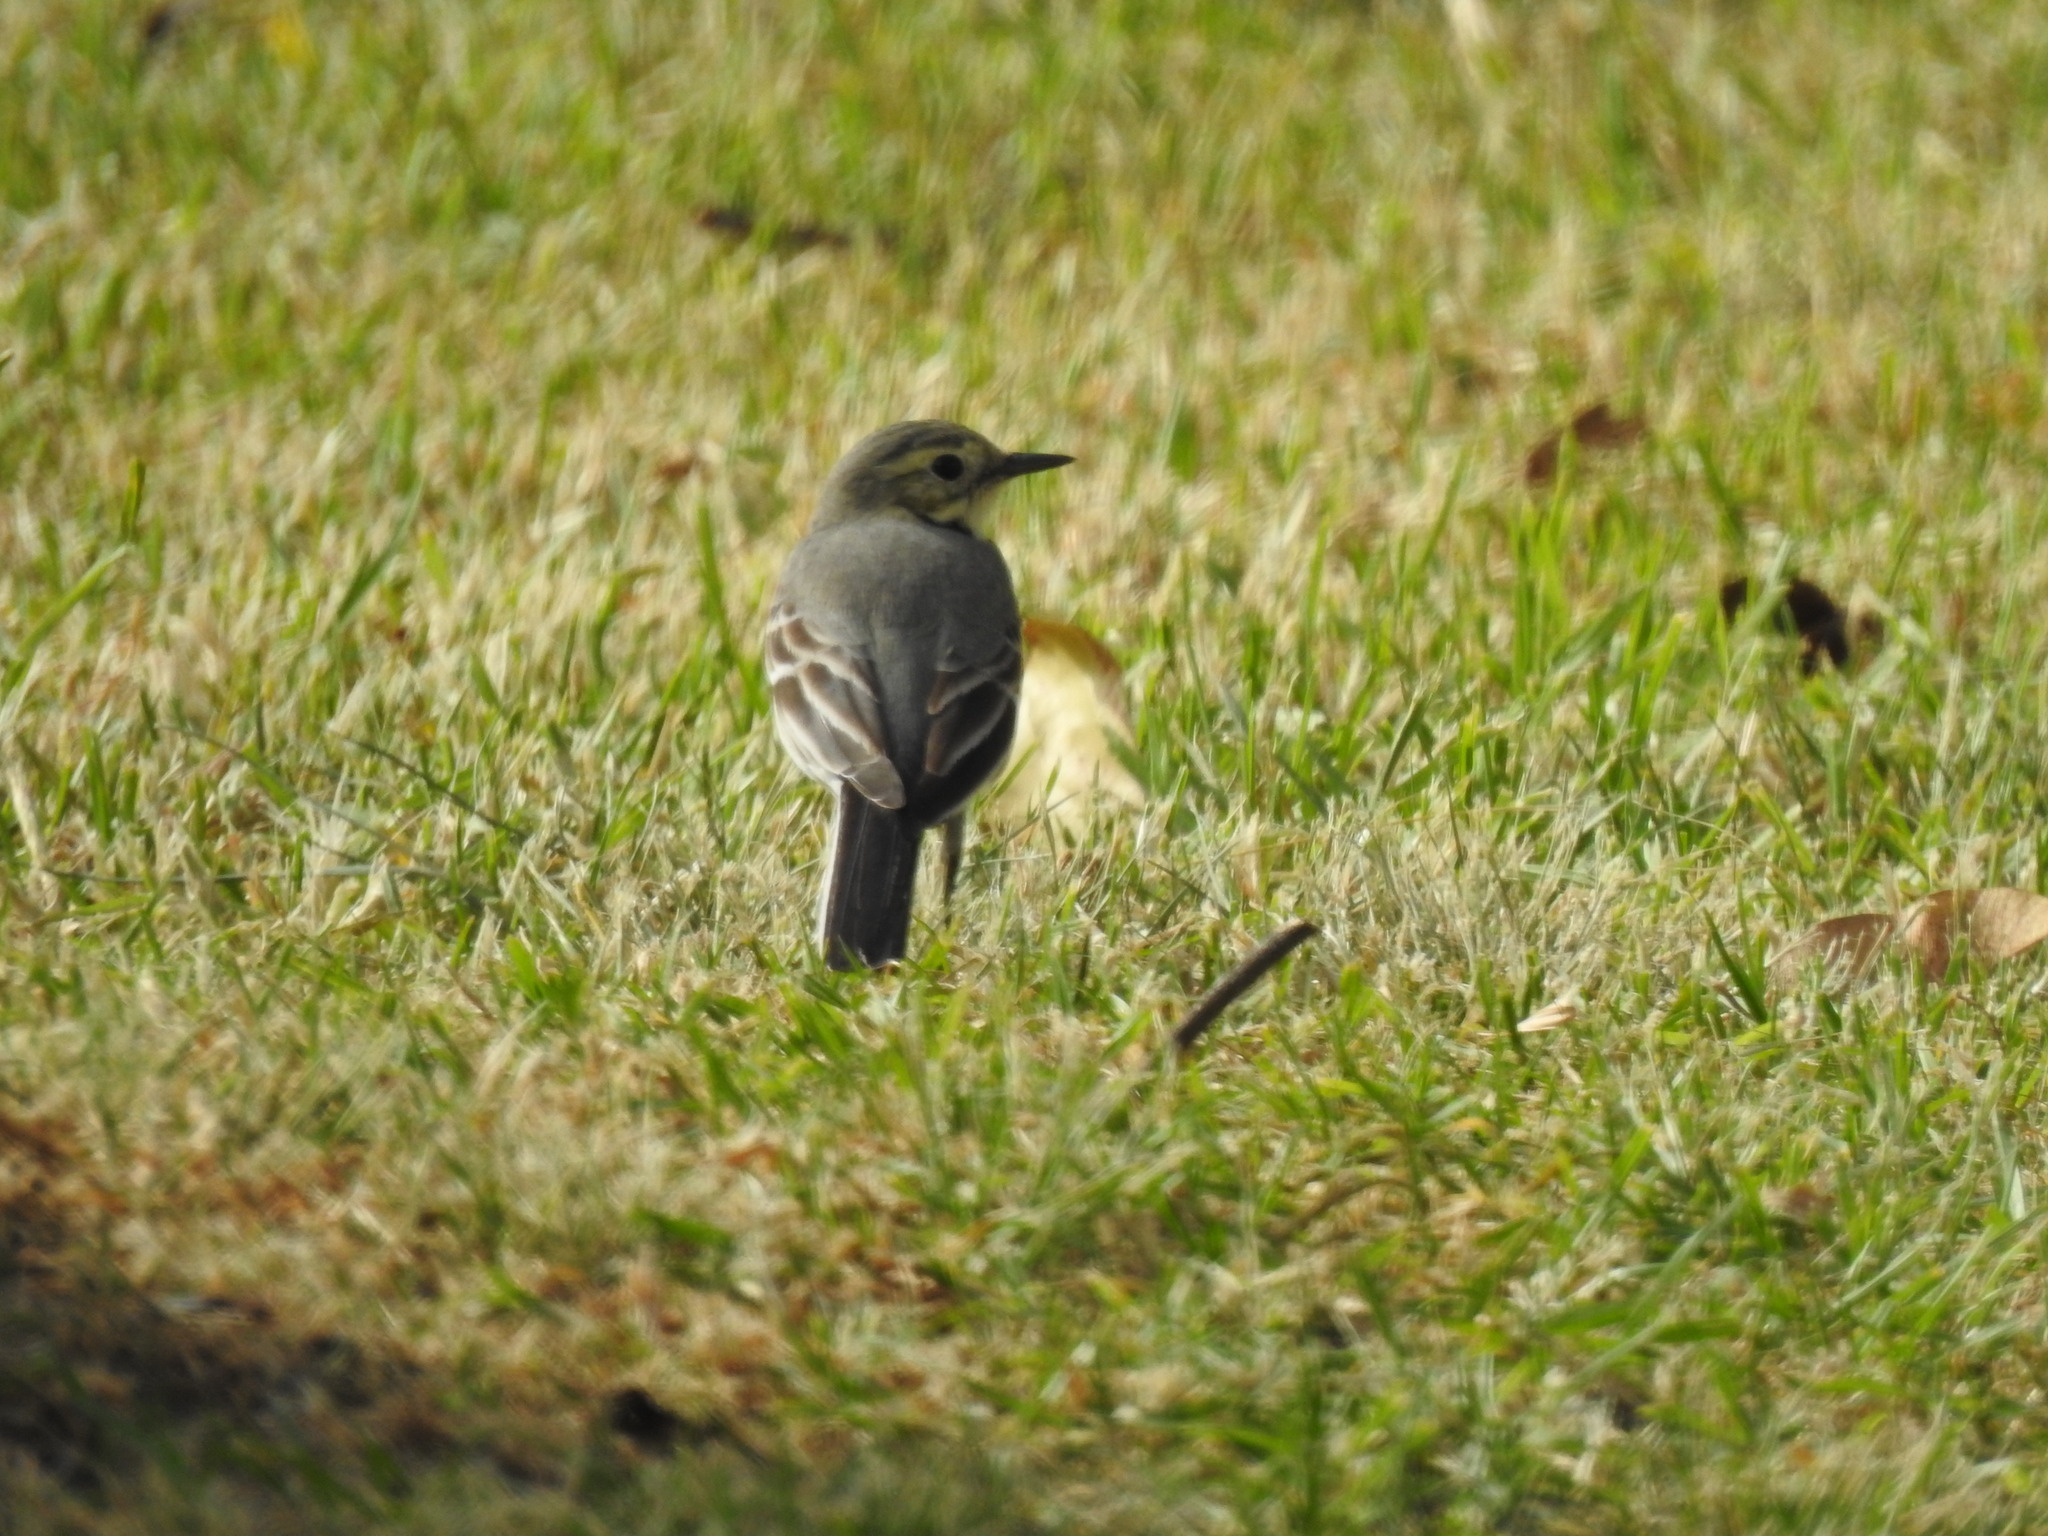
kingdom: Animalia
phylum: Chordata
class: Aves
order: Passeriformes
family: Motacillidae
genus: Motacilla
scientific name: Motacilla alba
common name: White wagtail
